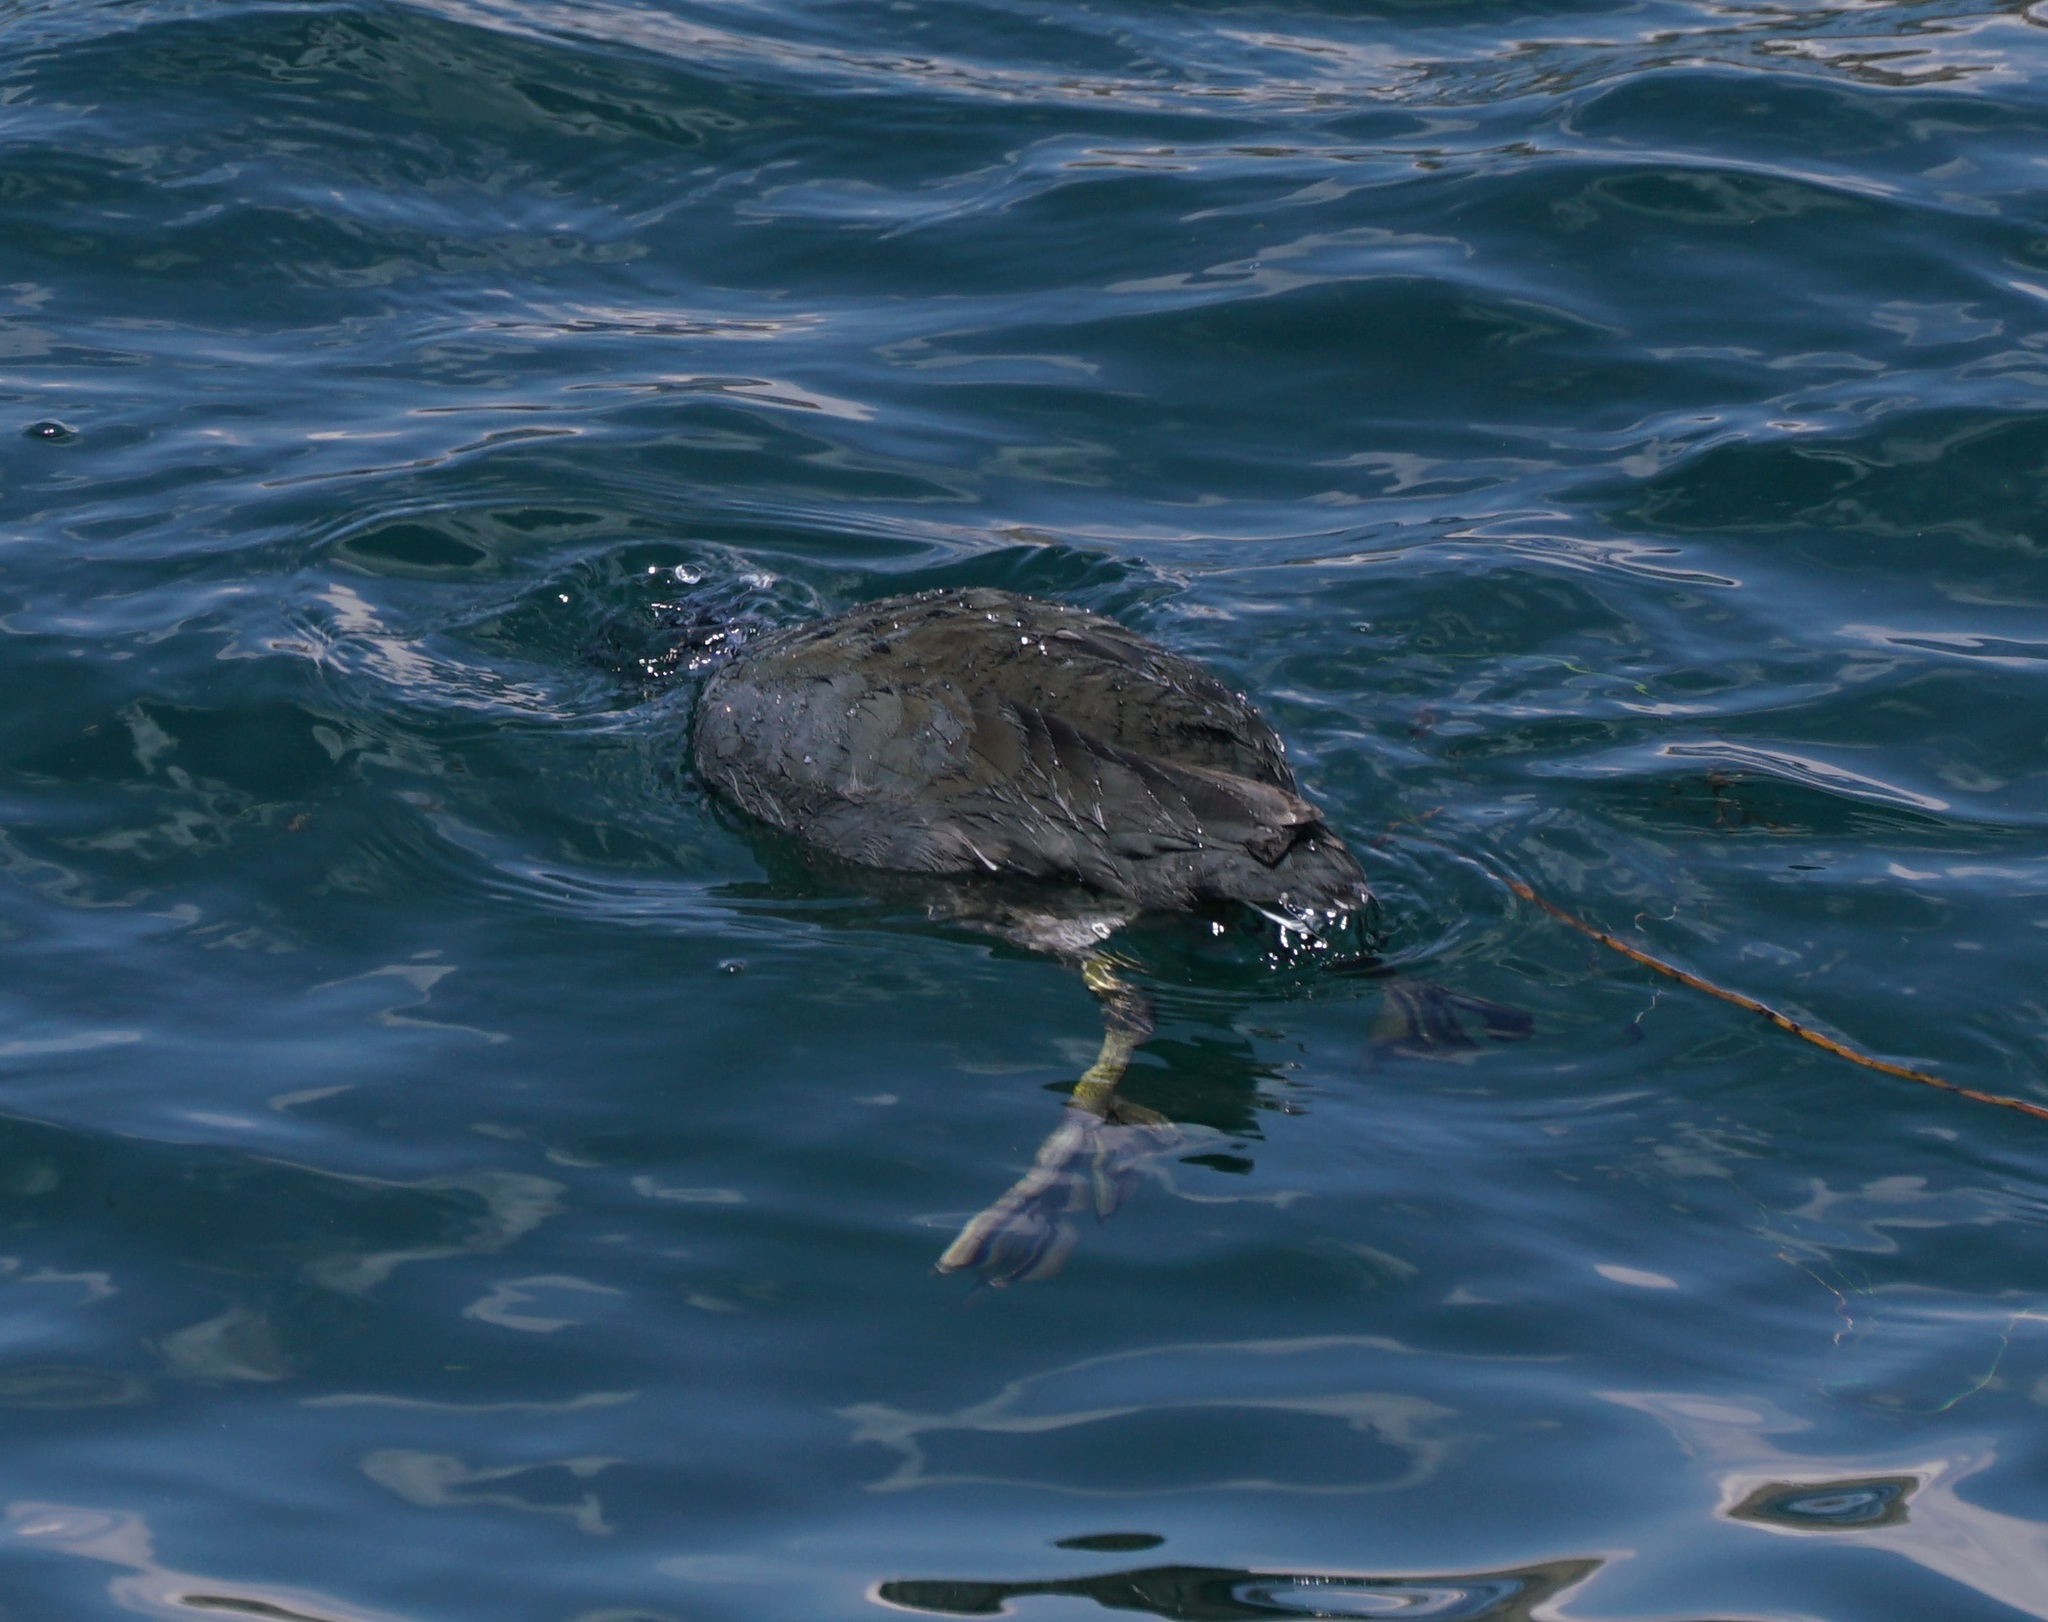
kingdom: Animalia
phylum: Chordata
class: Aves
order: Gruiformes
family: Rallidae
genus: Fulica
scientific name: Fulica ardesiaca
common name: Andean coot
